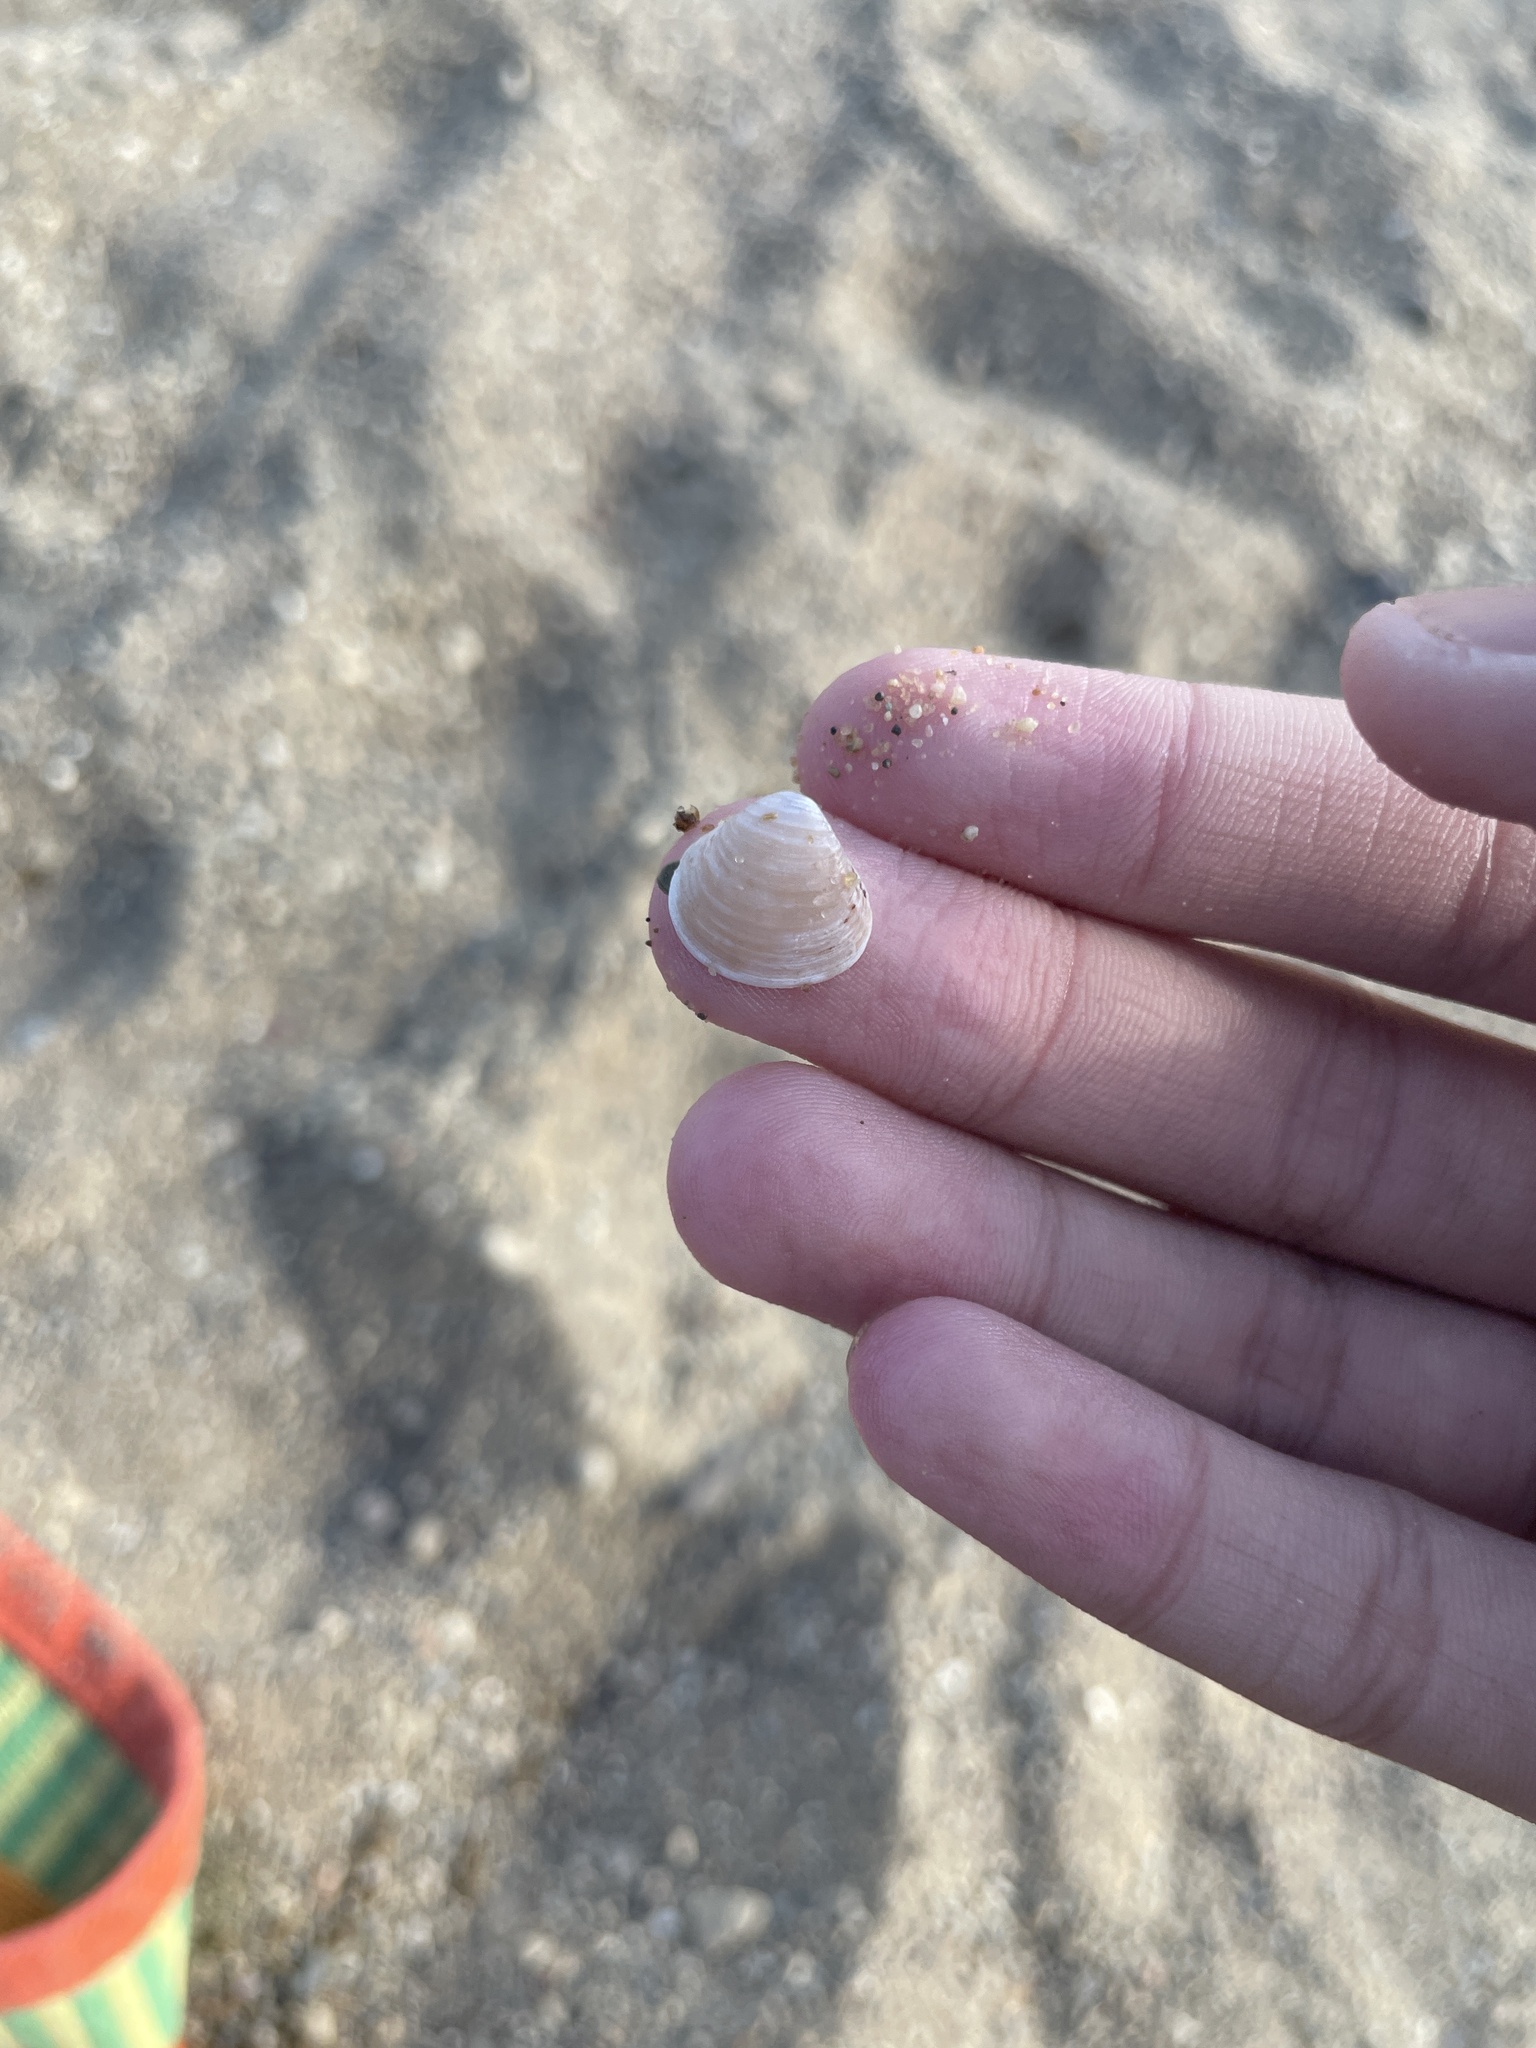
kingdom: Animalia
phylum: Mollusca
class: Bivalvia
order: Venerida
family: Cyrenidae
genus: Corbicula
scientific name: Corbicula fluminea
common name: Asian clam
